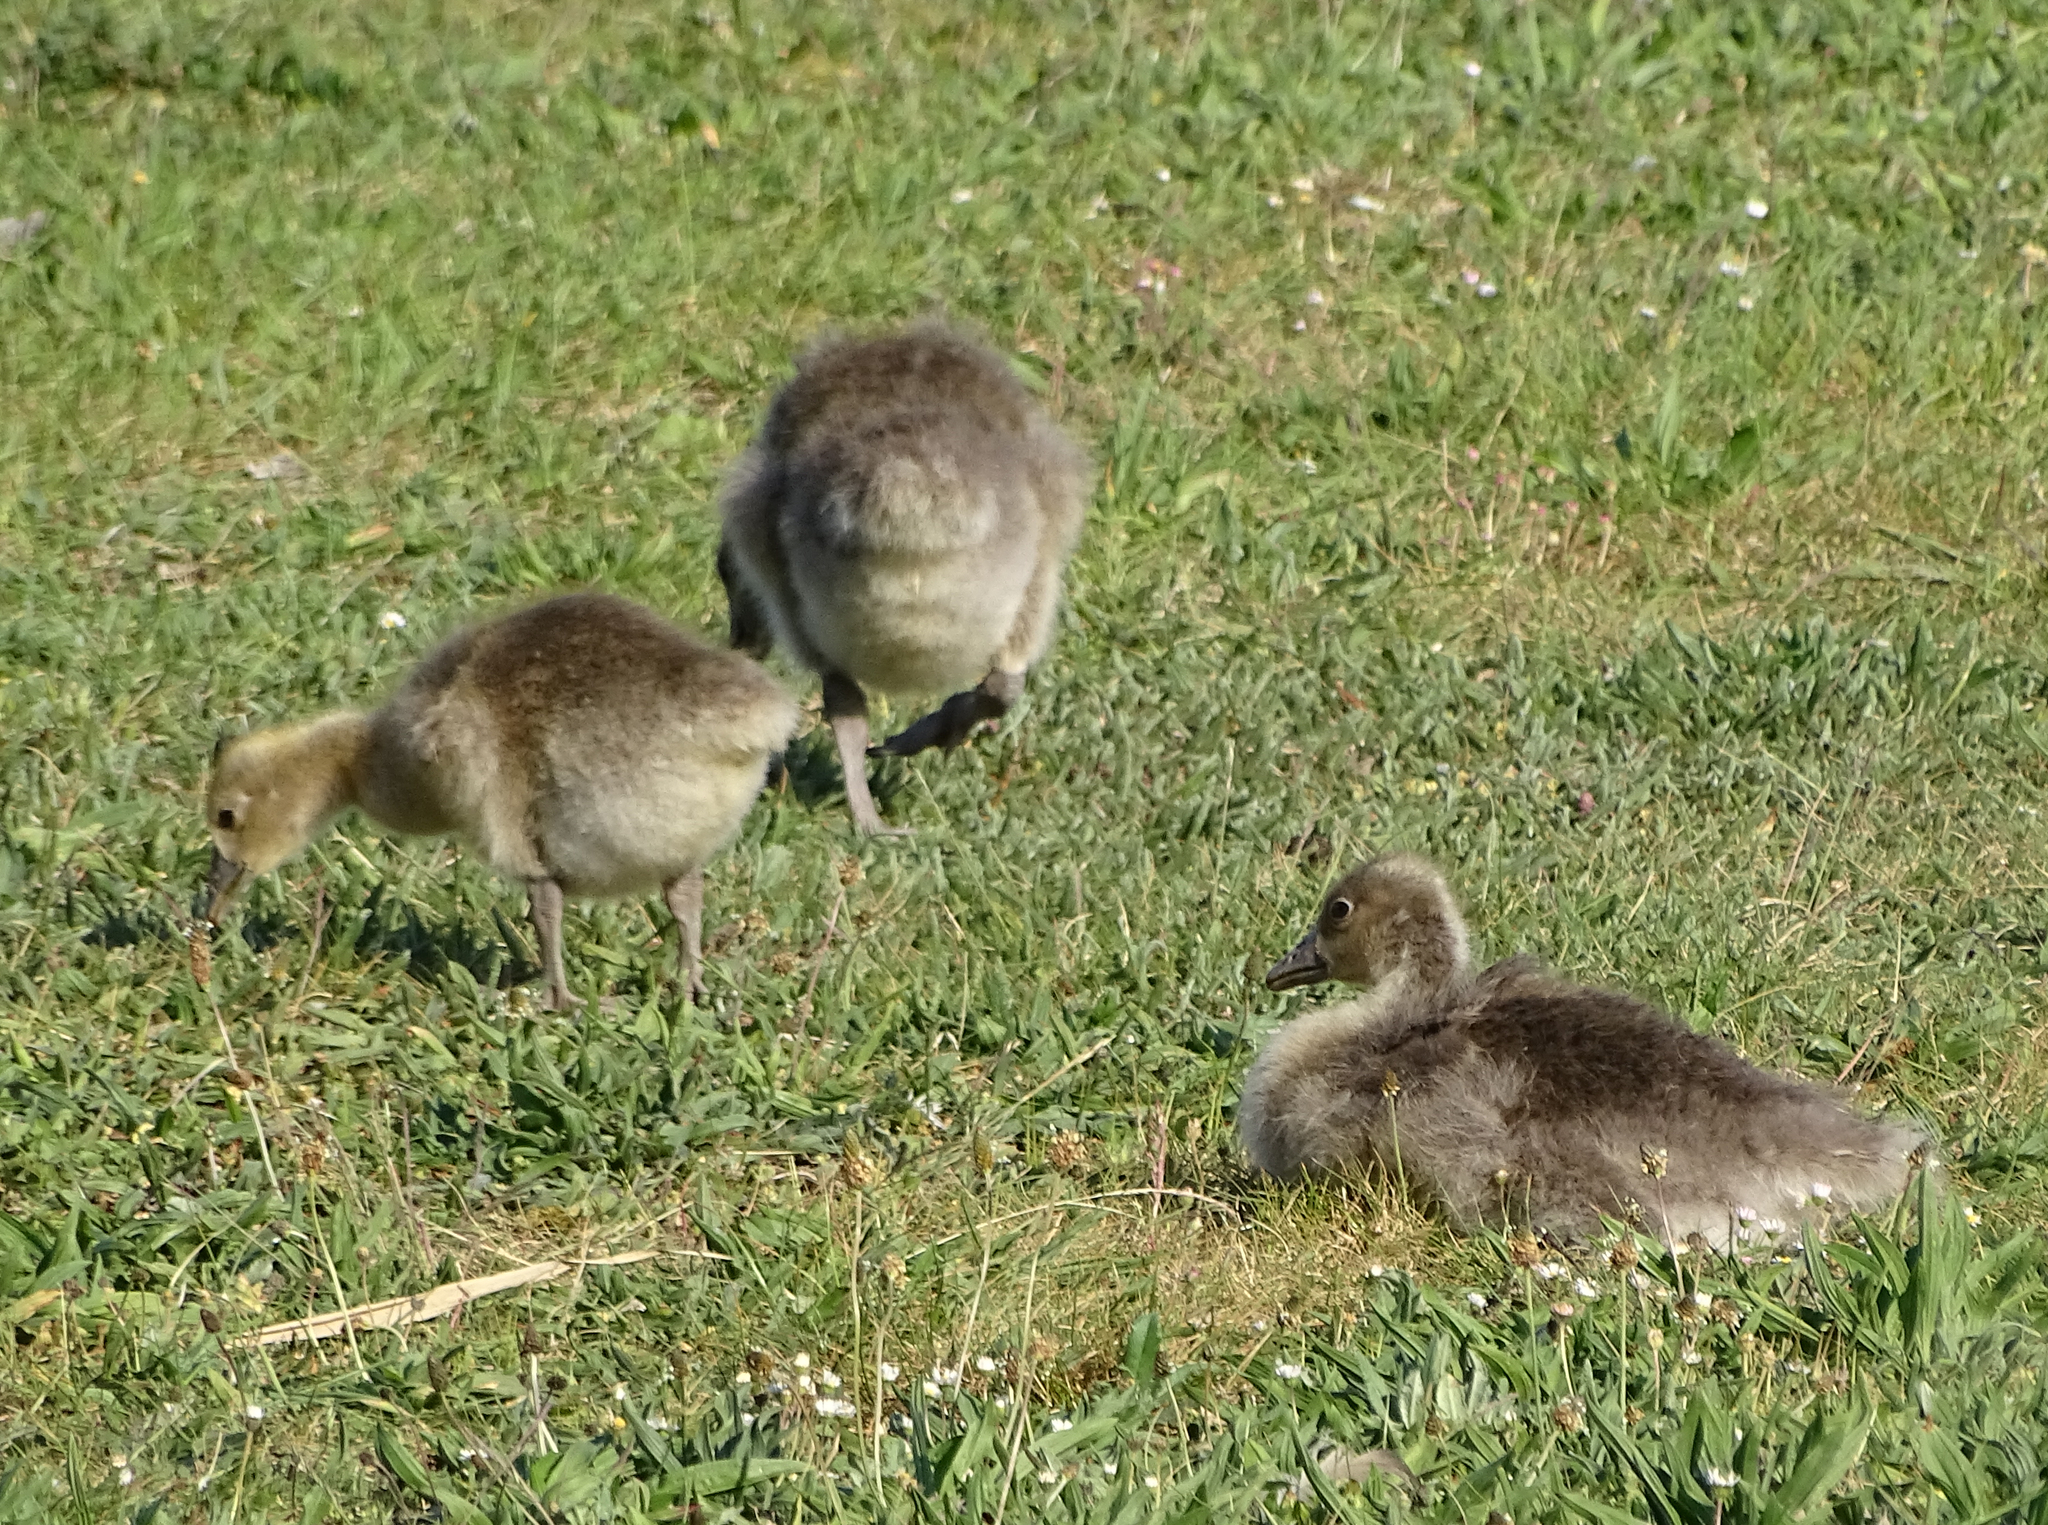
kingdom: Animalia
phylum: Chordata
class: Aves
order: Anseriformes
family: Anatidae
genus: Anser
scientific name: Anser anser
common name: Greylag goose
